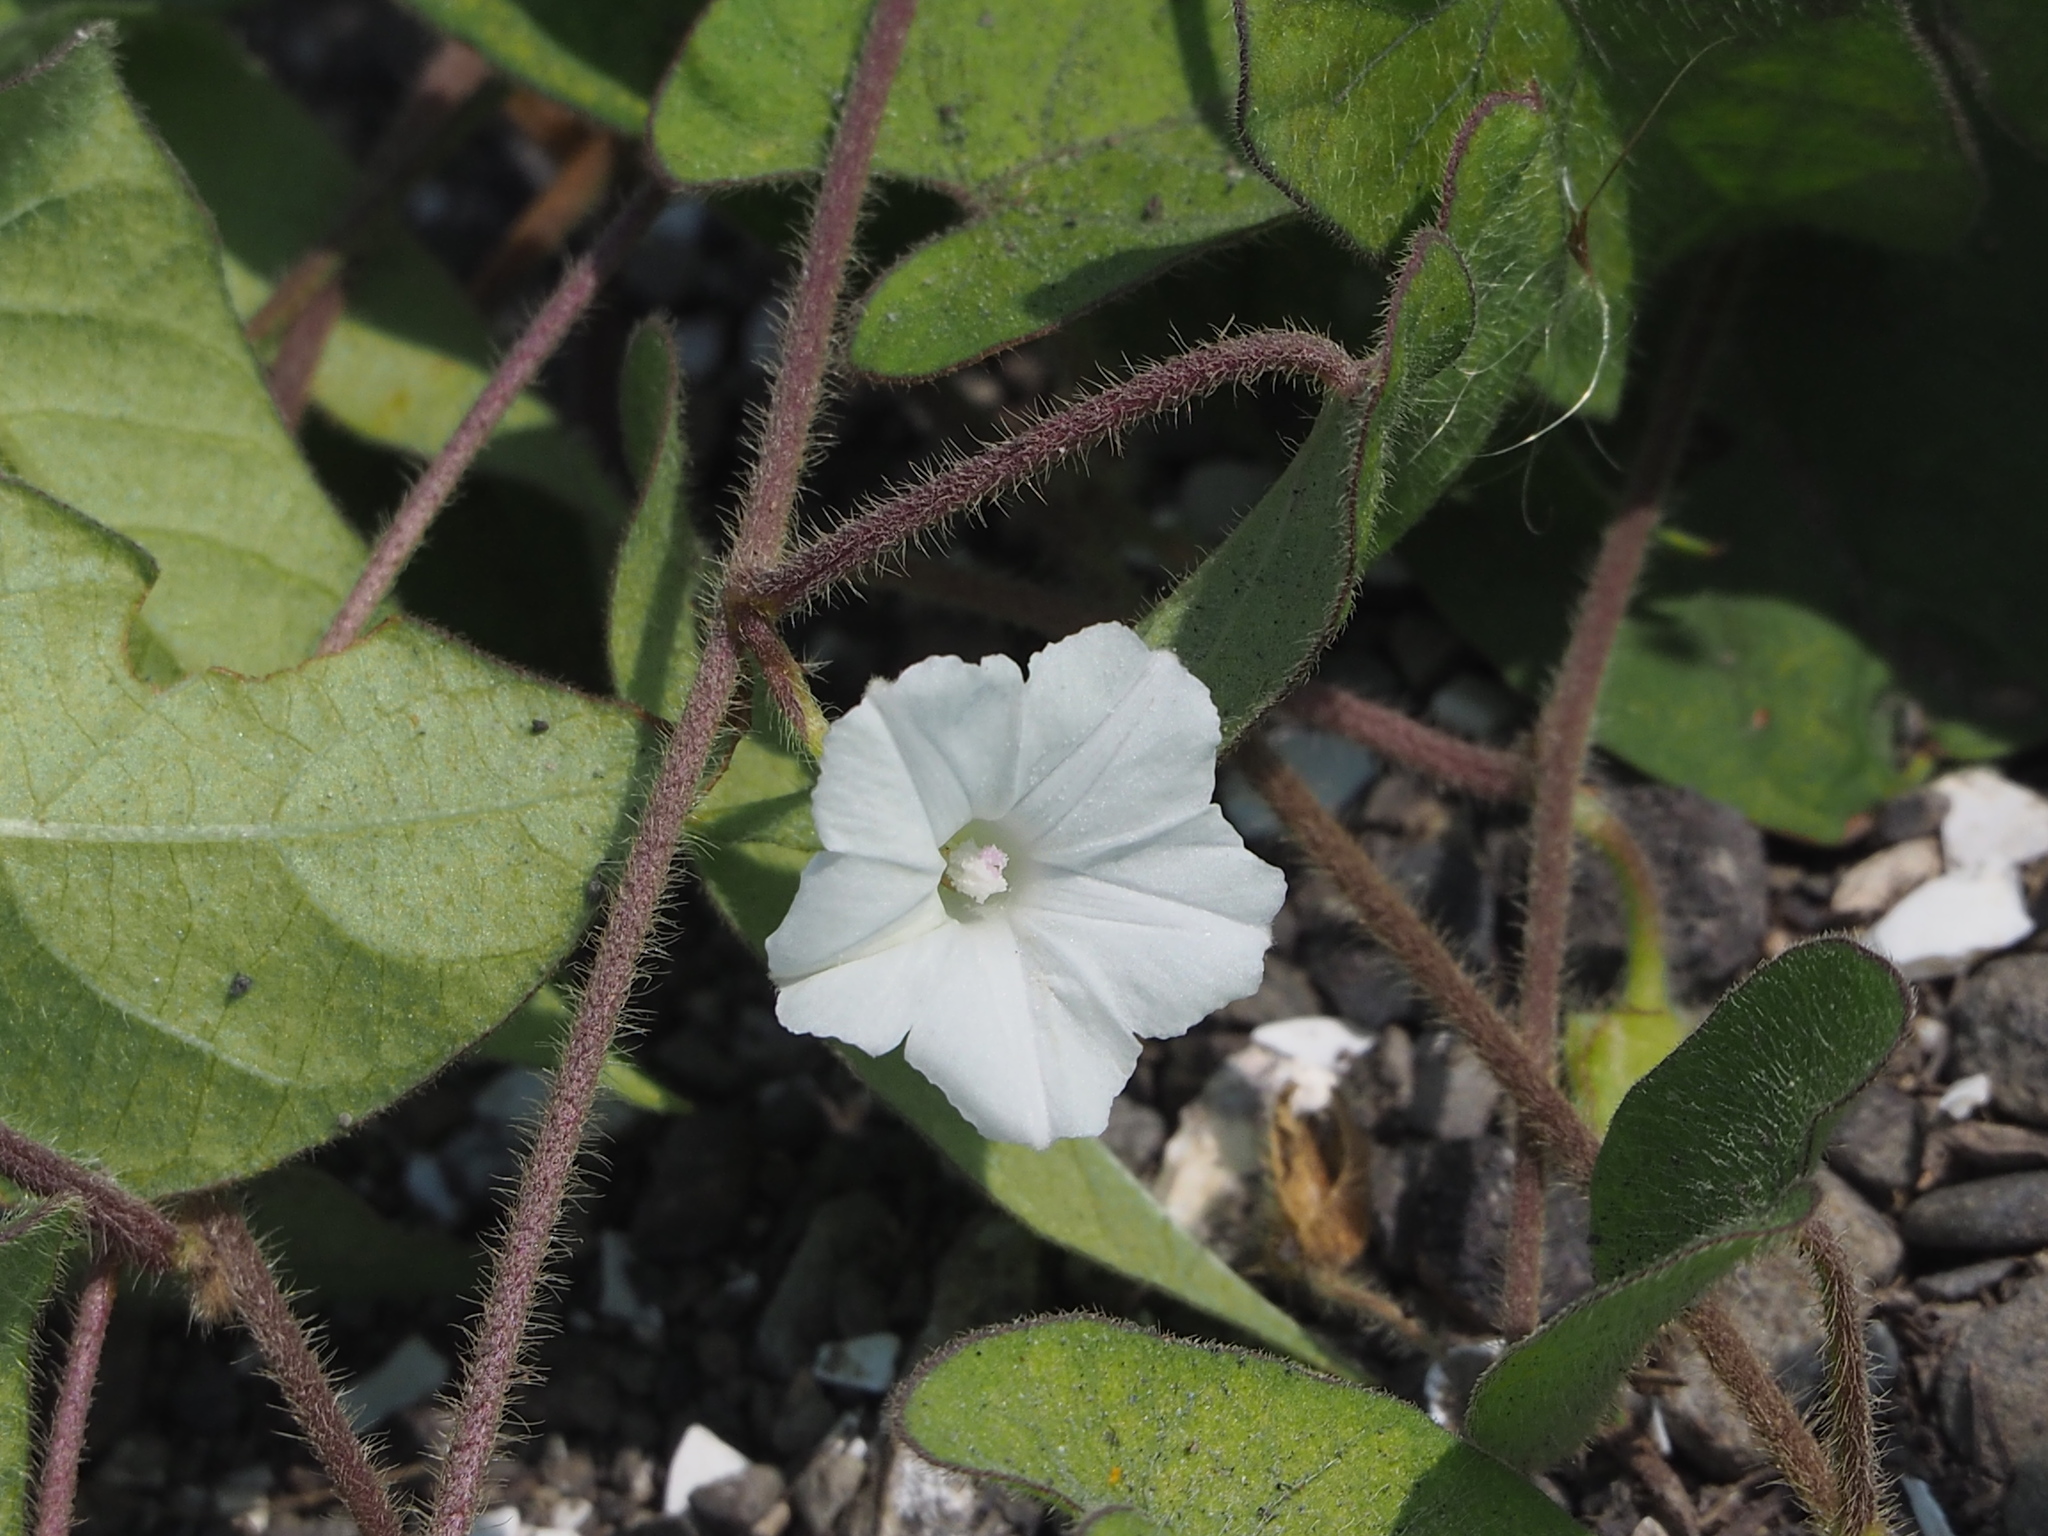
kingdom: Plantae
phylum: Tracheophyta
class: Magnoliopsida
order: Solanales
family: Convolvulaceae
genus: Ipomoea
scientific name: Ipomoea biflora
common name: Bellvine
